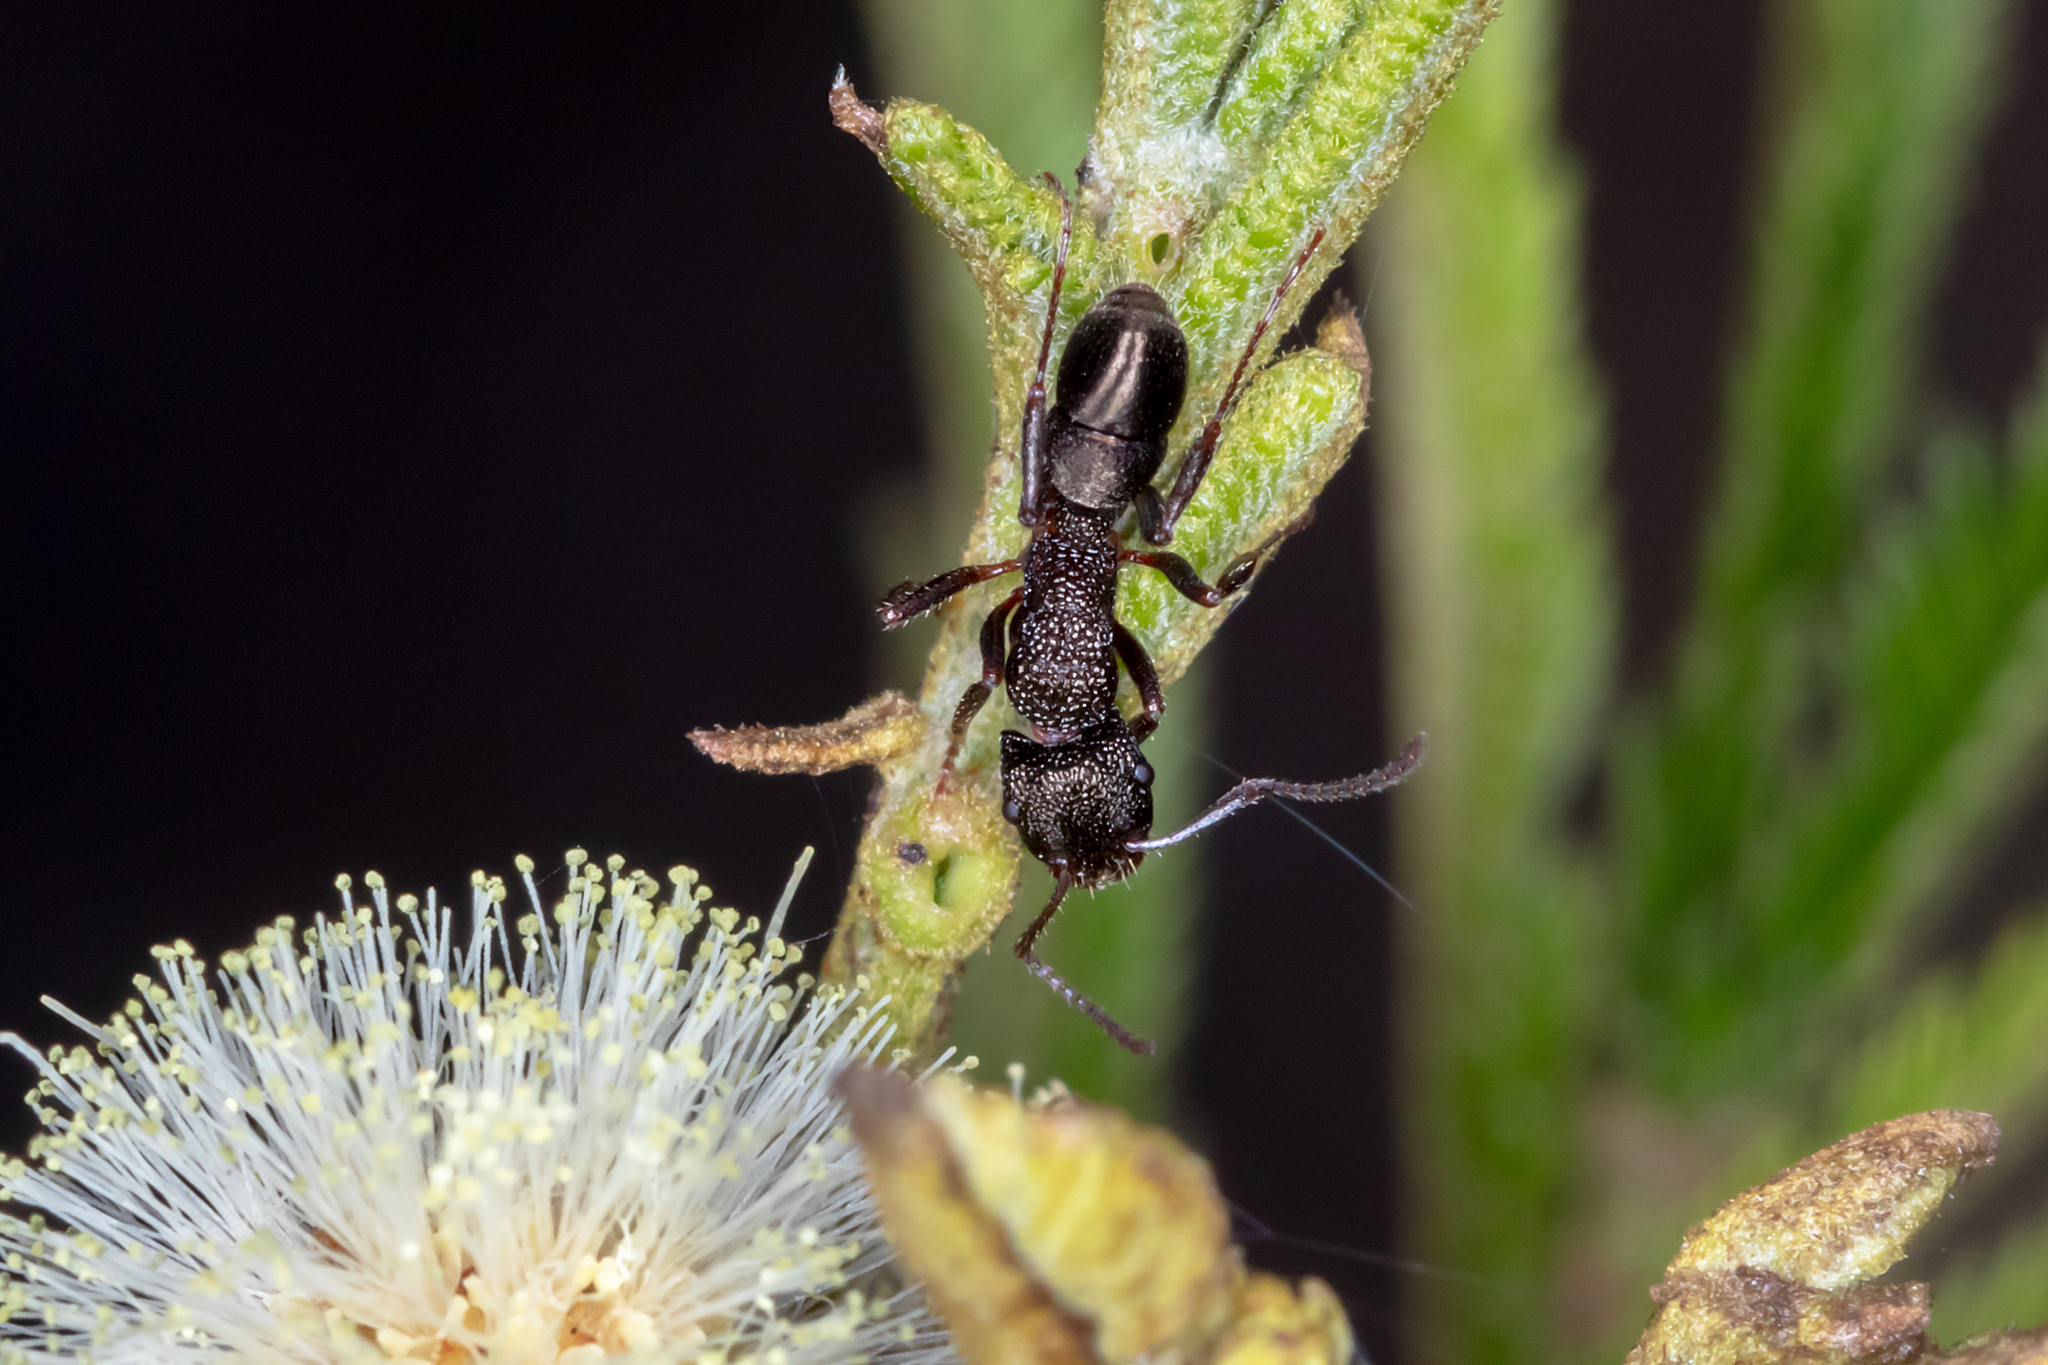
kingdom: Animalia
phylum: Arthropoda
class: Insecta
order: Hymenoptera
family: Formicidae
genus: Rhytidoponera
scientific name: Rhytidoponera tasmaniensis
